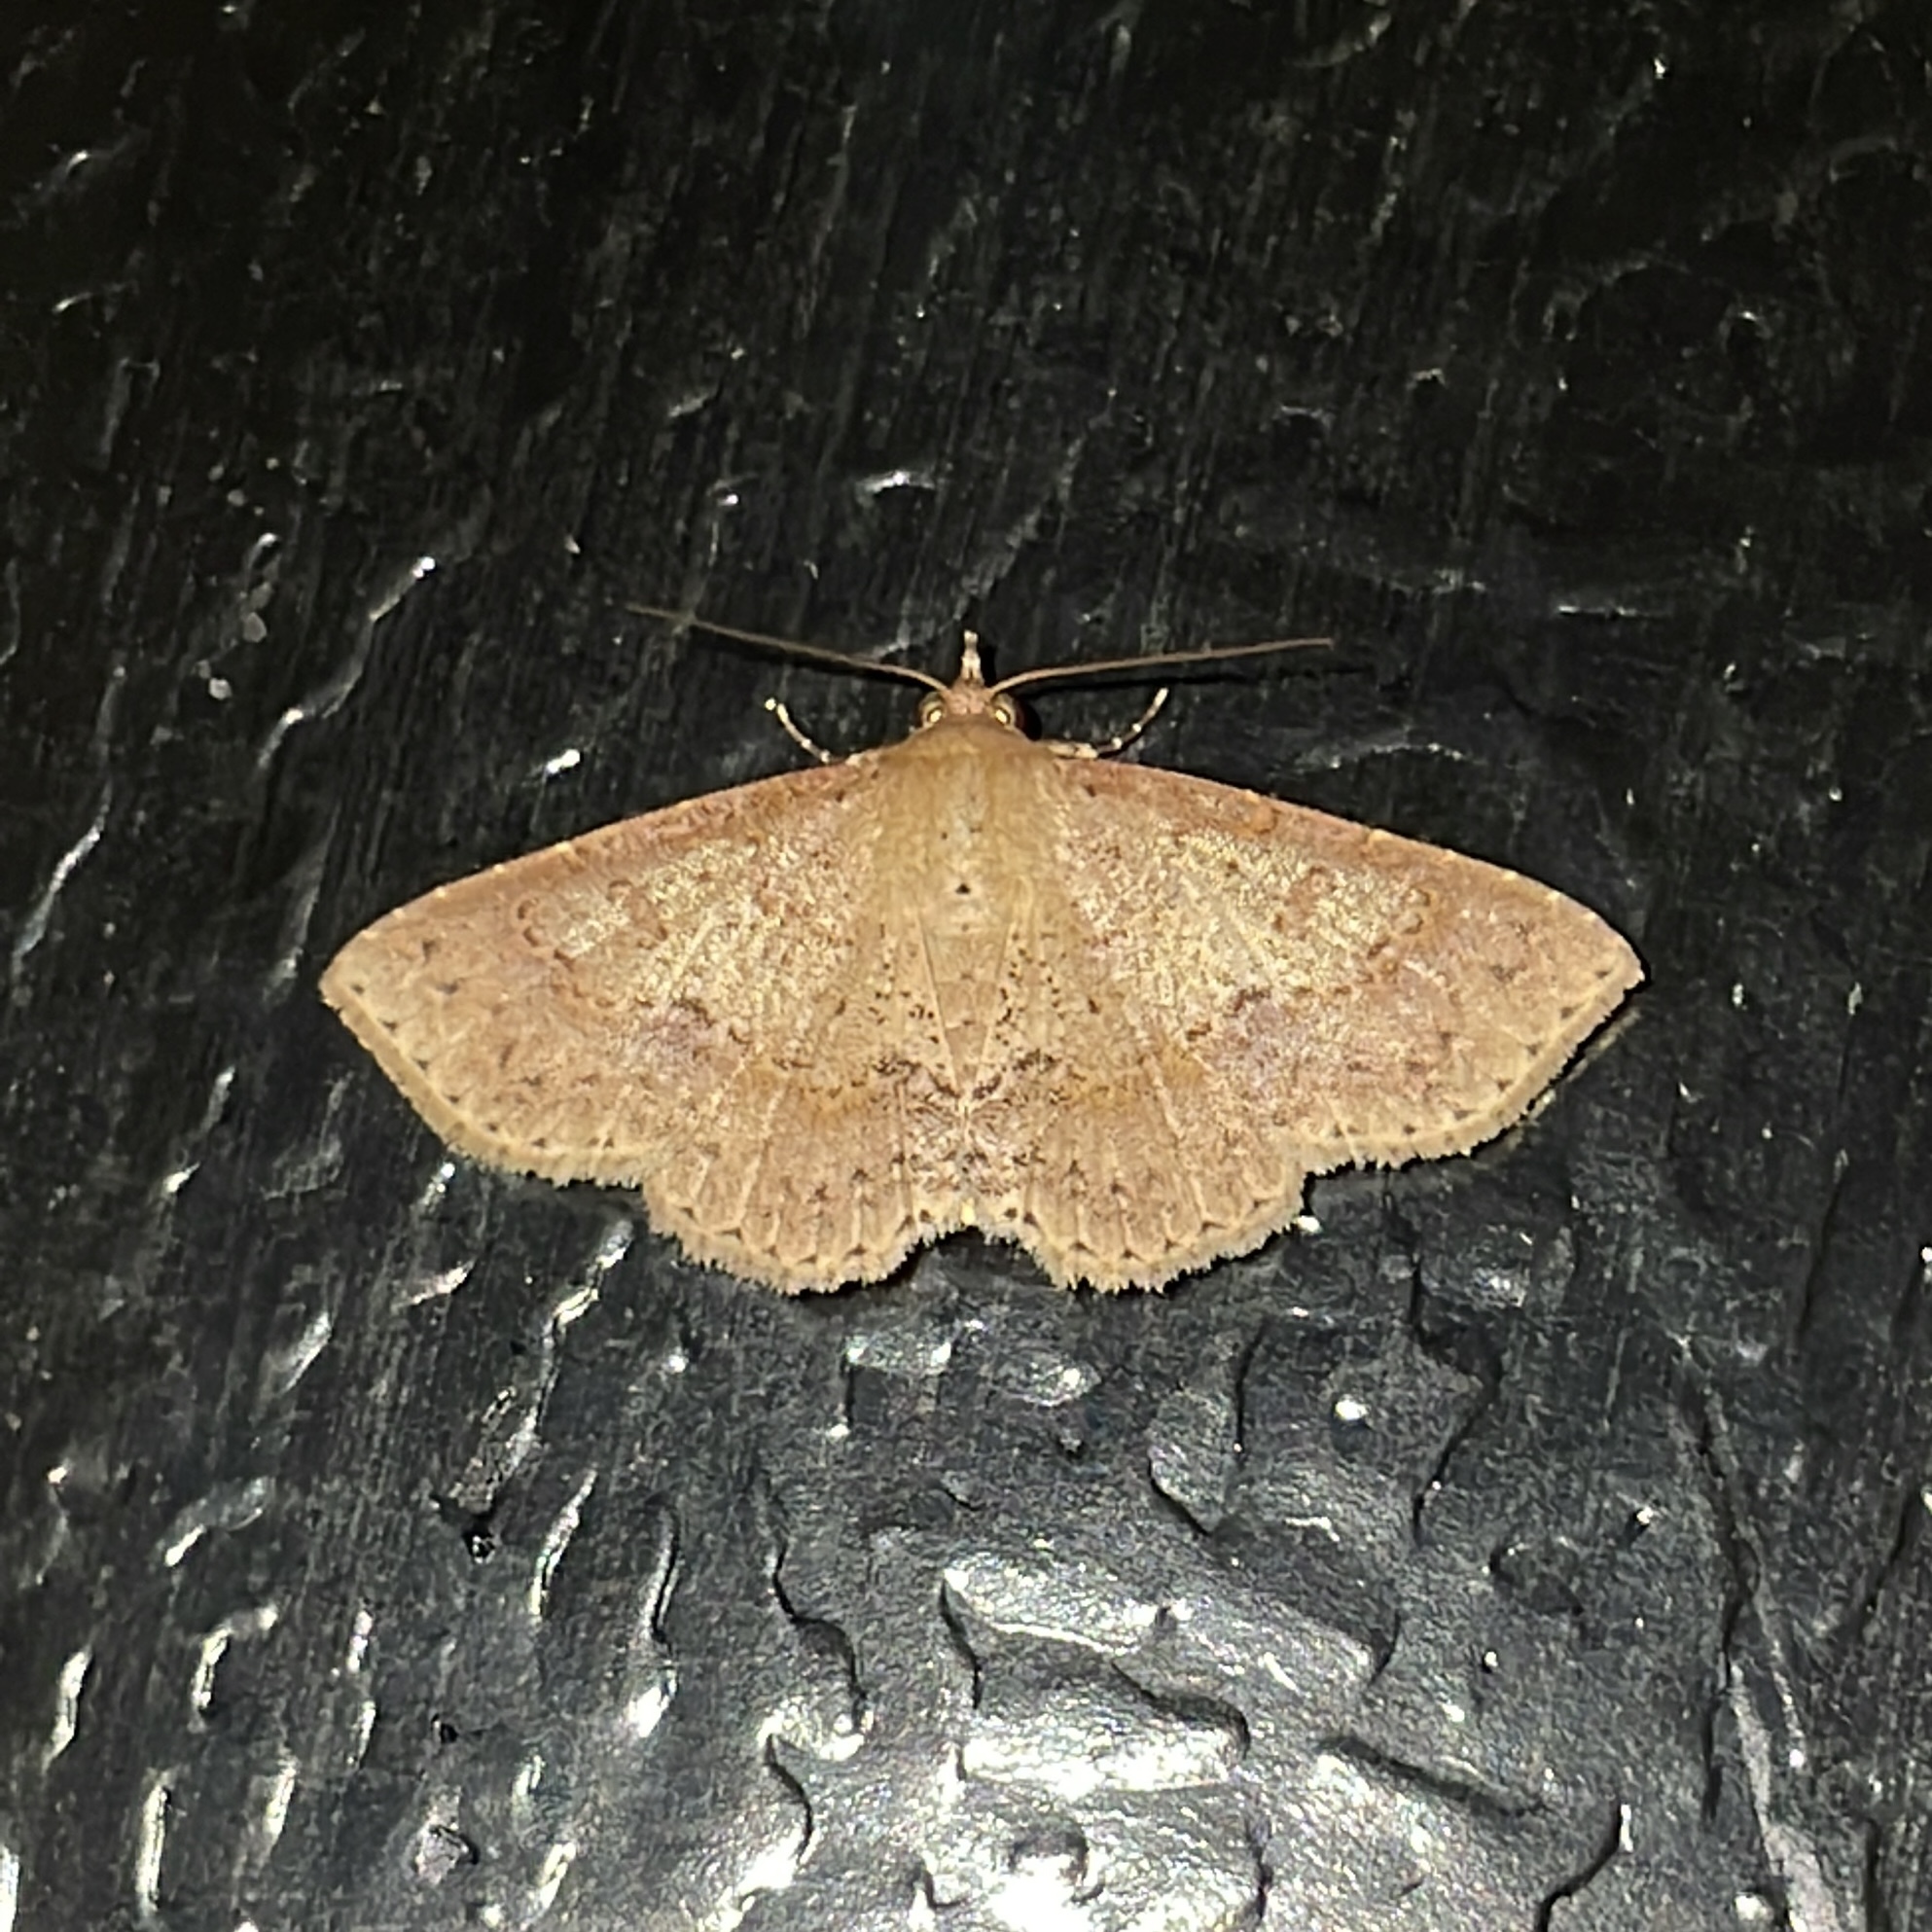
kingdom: Animalia
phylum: Arthropoda
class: Insecta
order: Lepidoptera
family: Erebidae
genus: Antiblemma
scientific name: Antiblemma melanoides
